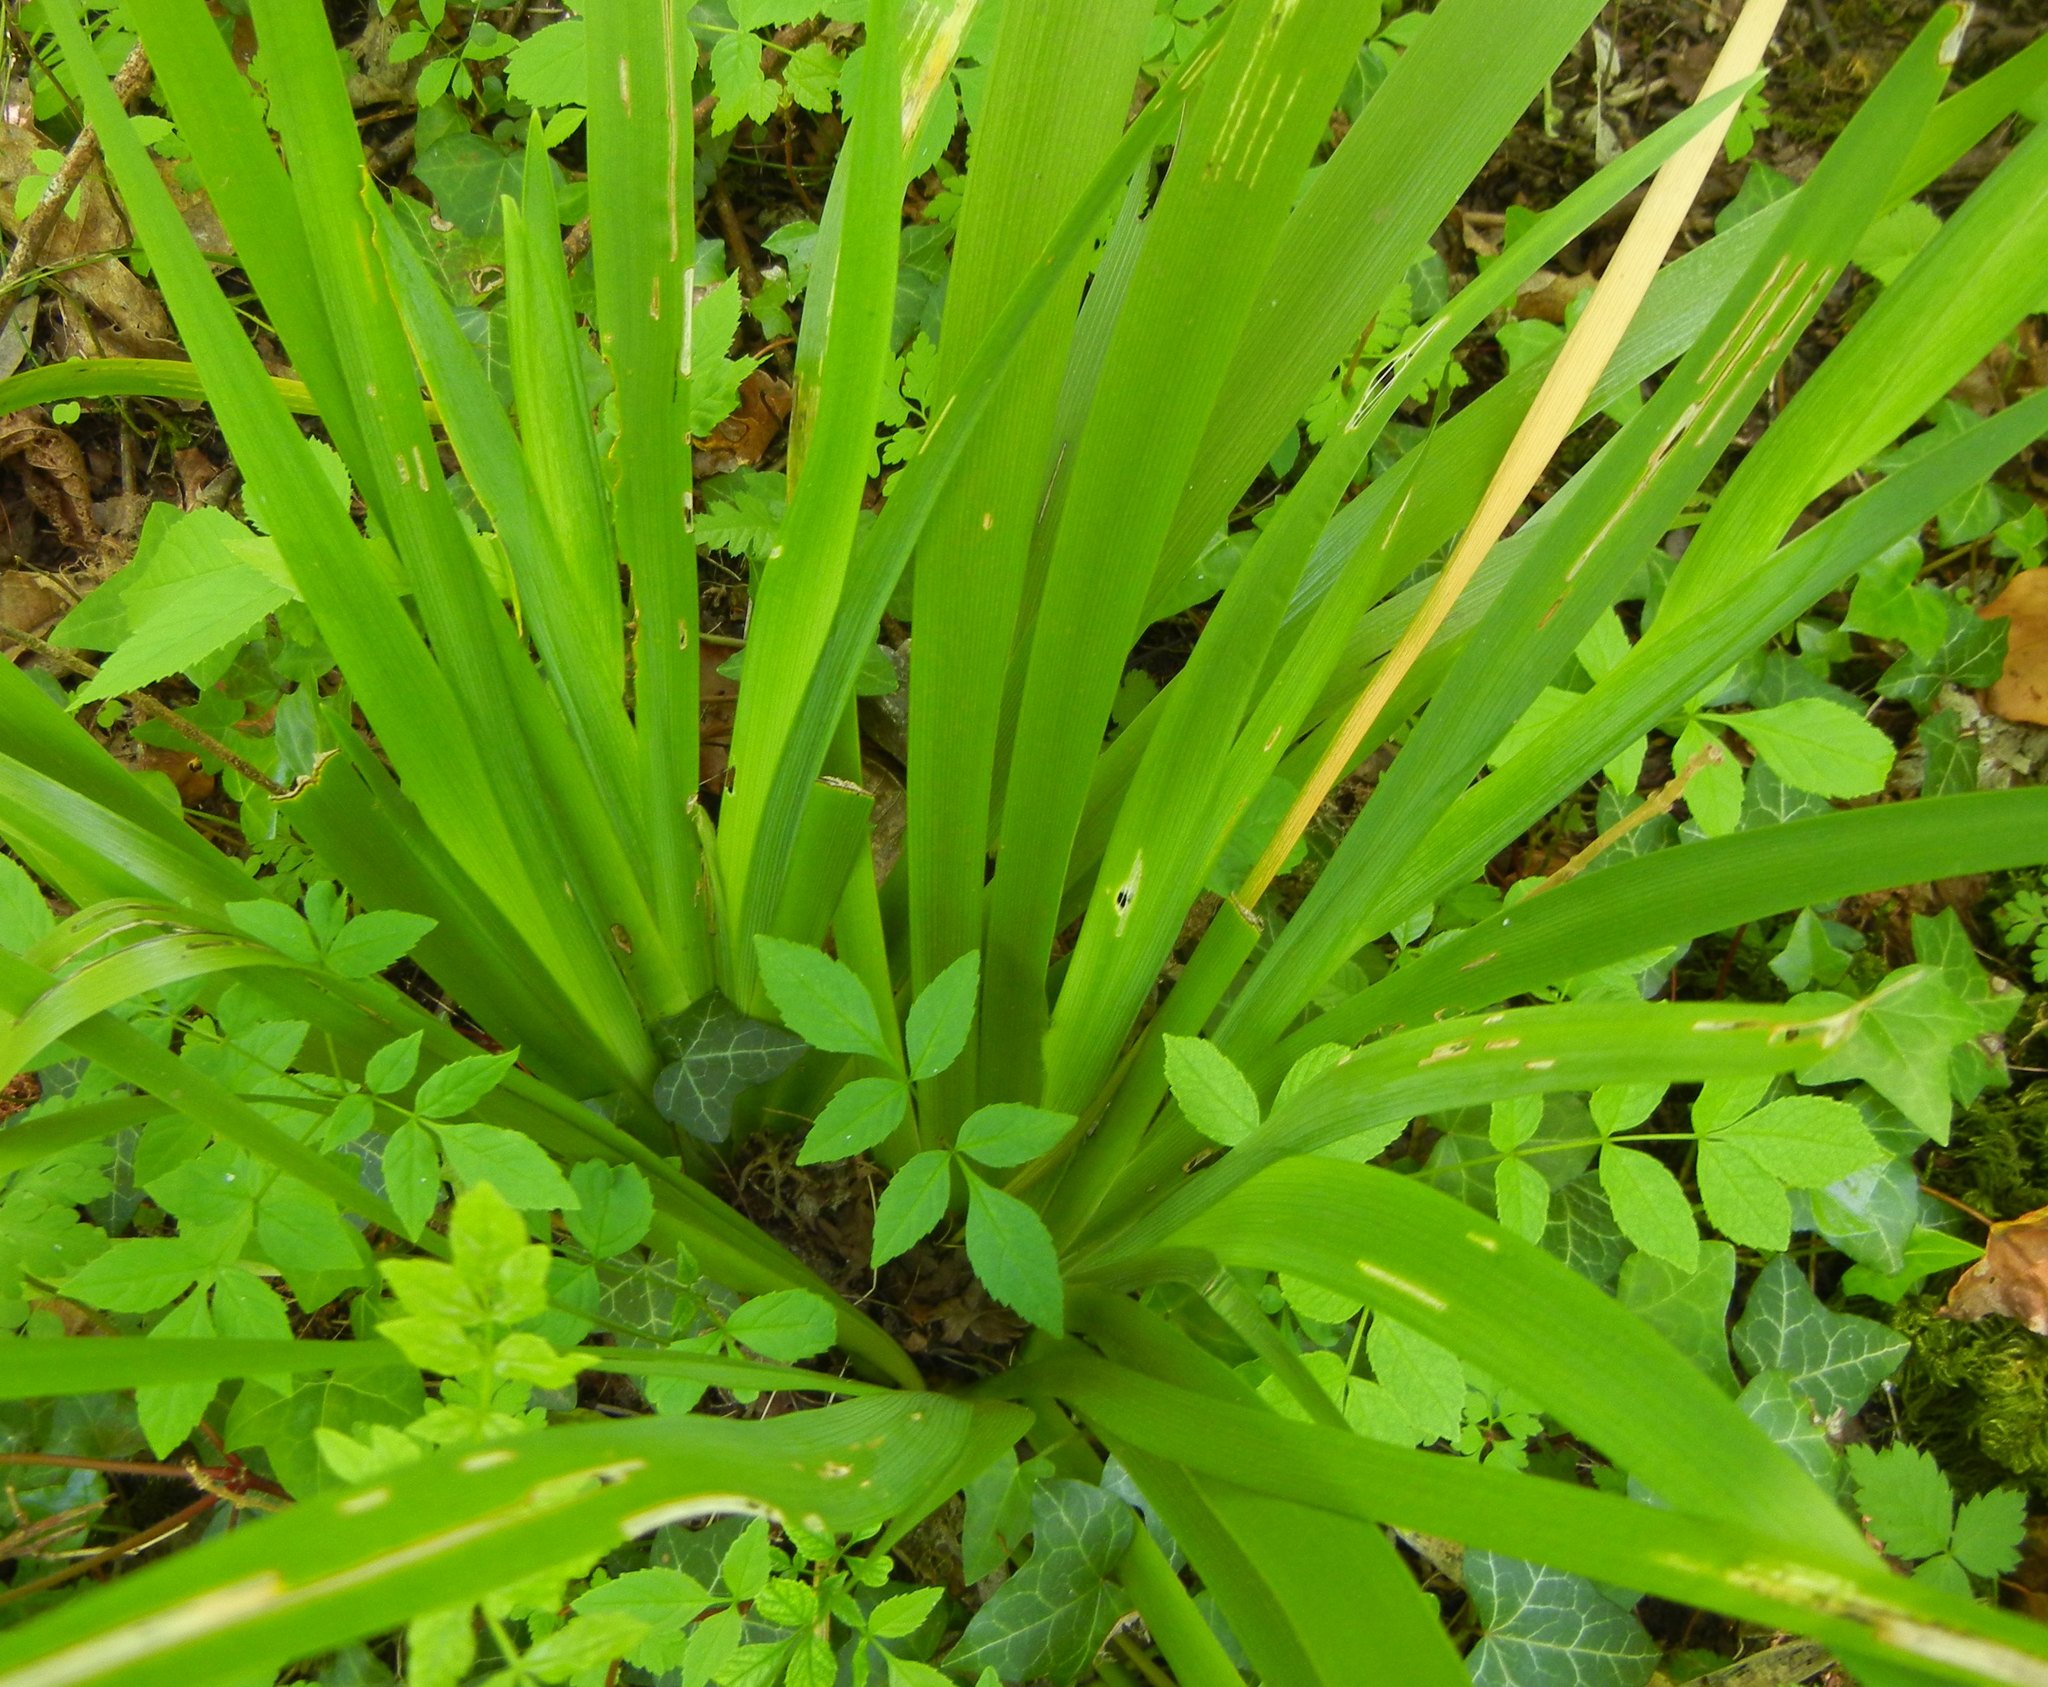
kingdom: Plantae
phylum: Tracheophyta
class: Liliopsida
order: Asparagales
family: Iridaceae
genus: Iris
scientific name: Iris foetidissima
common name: Stinking iris
